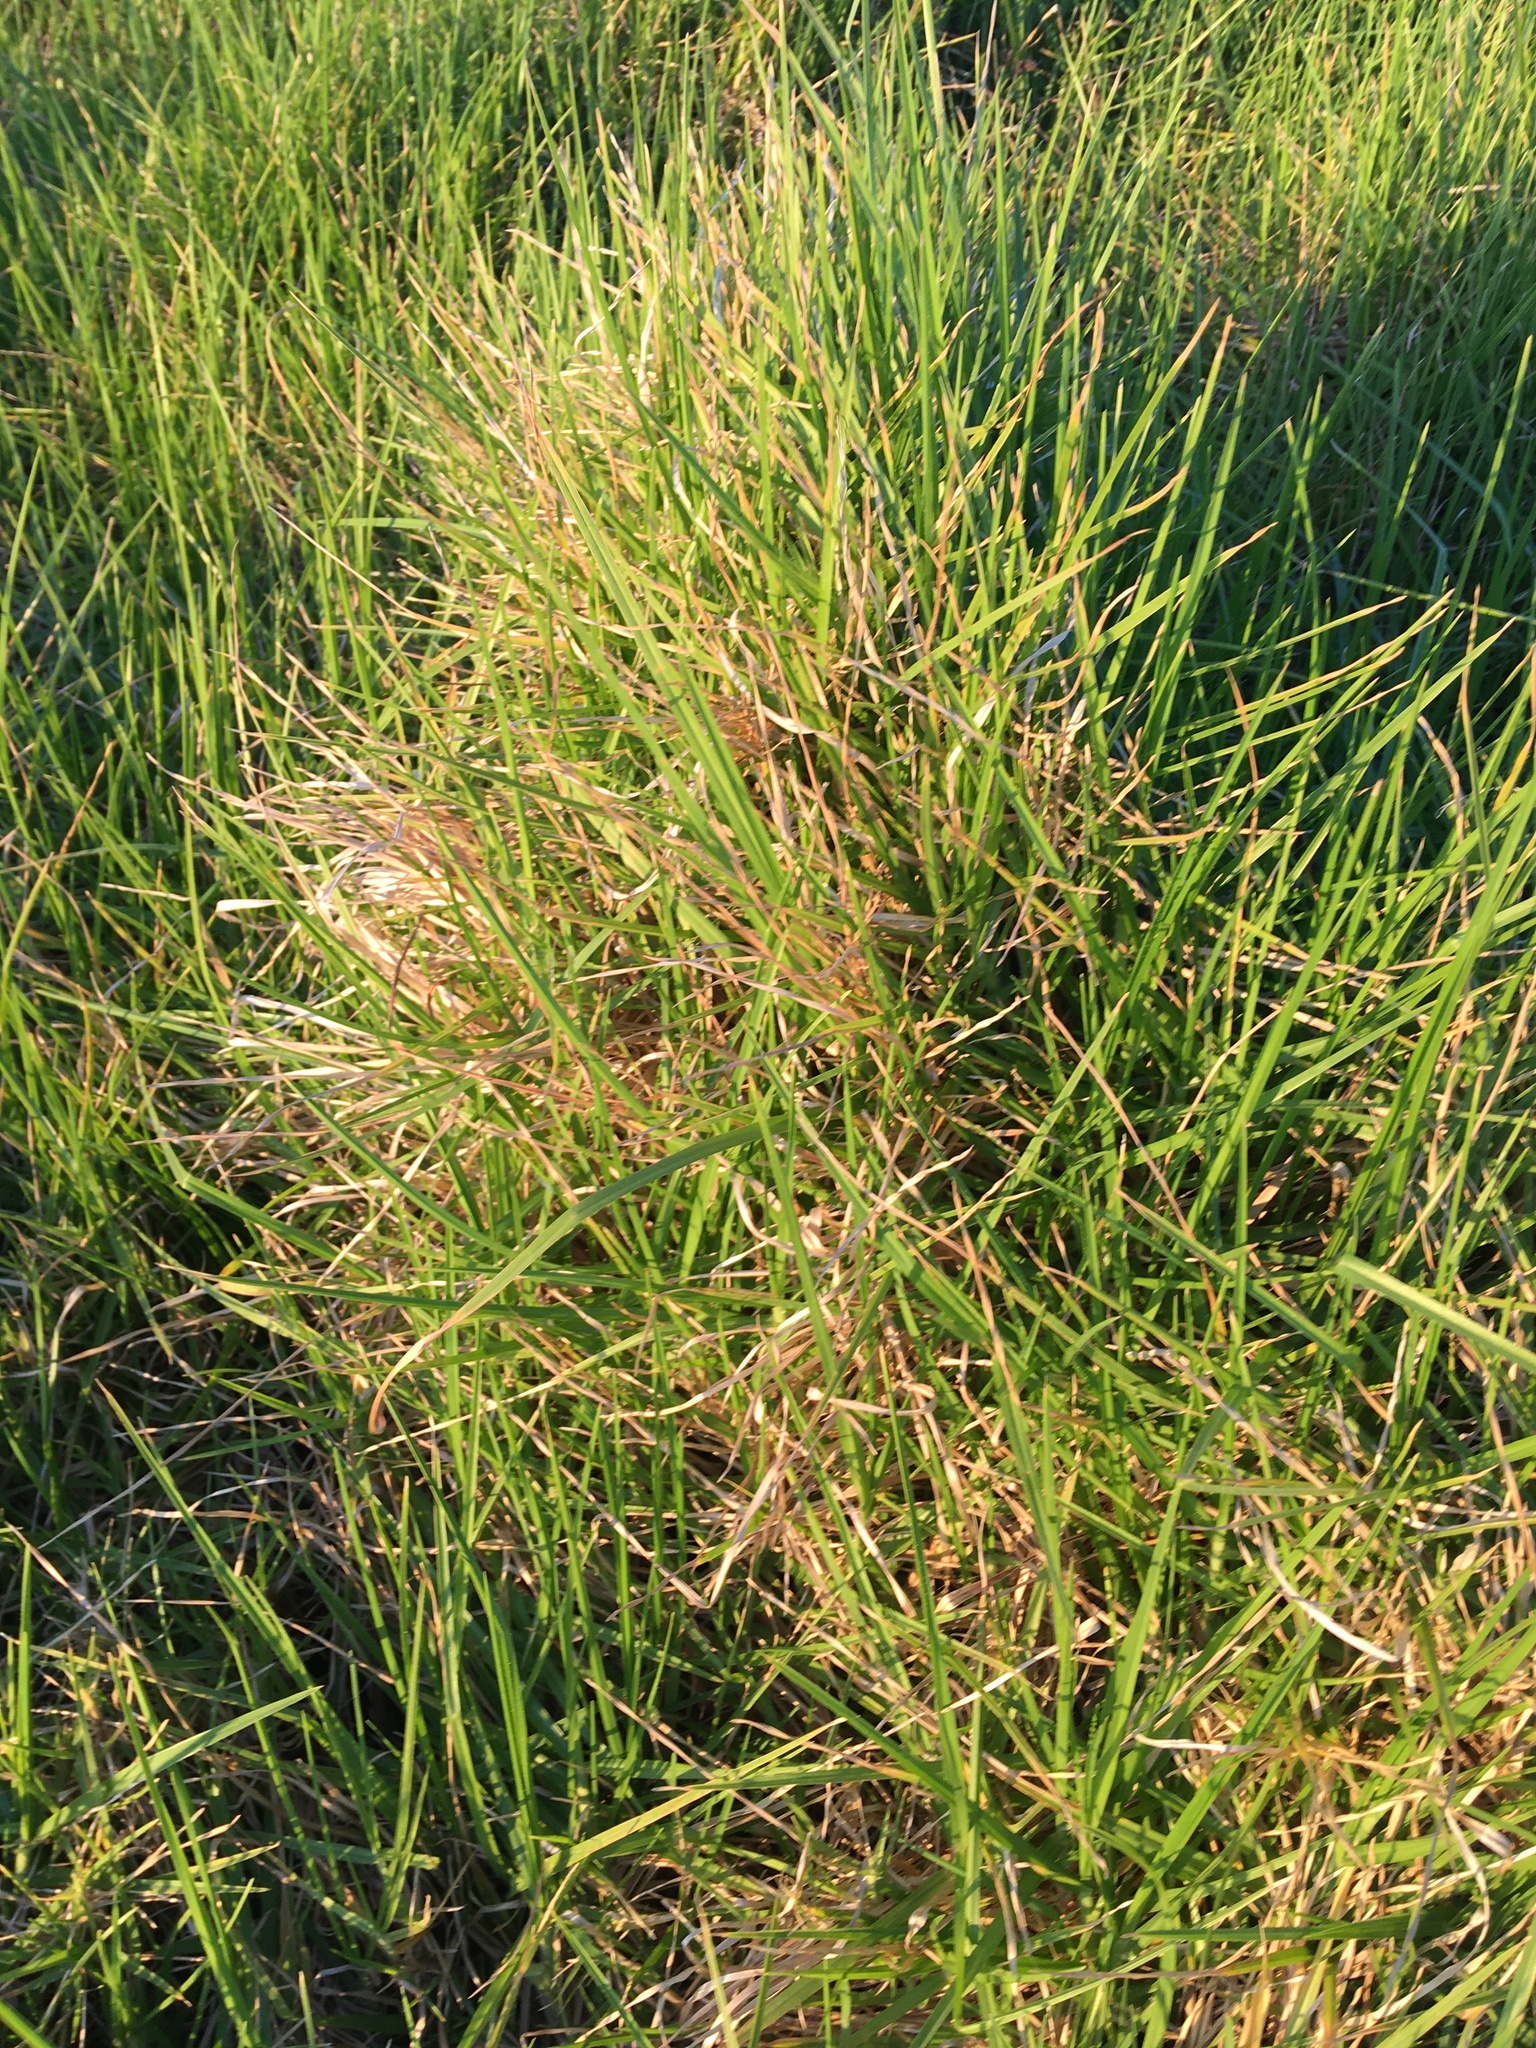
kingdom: Plantae
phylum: Tracheophyta
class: Liliopsida
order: Poales
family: Poaceae
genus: Cenchrus
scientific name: Cenchrus clandestinus
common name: Kikuyugrass
